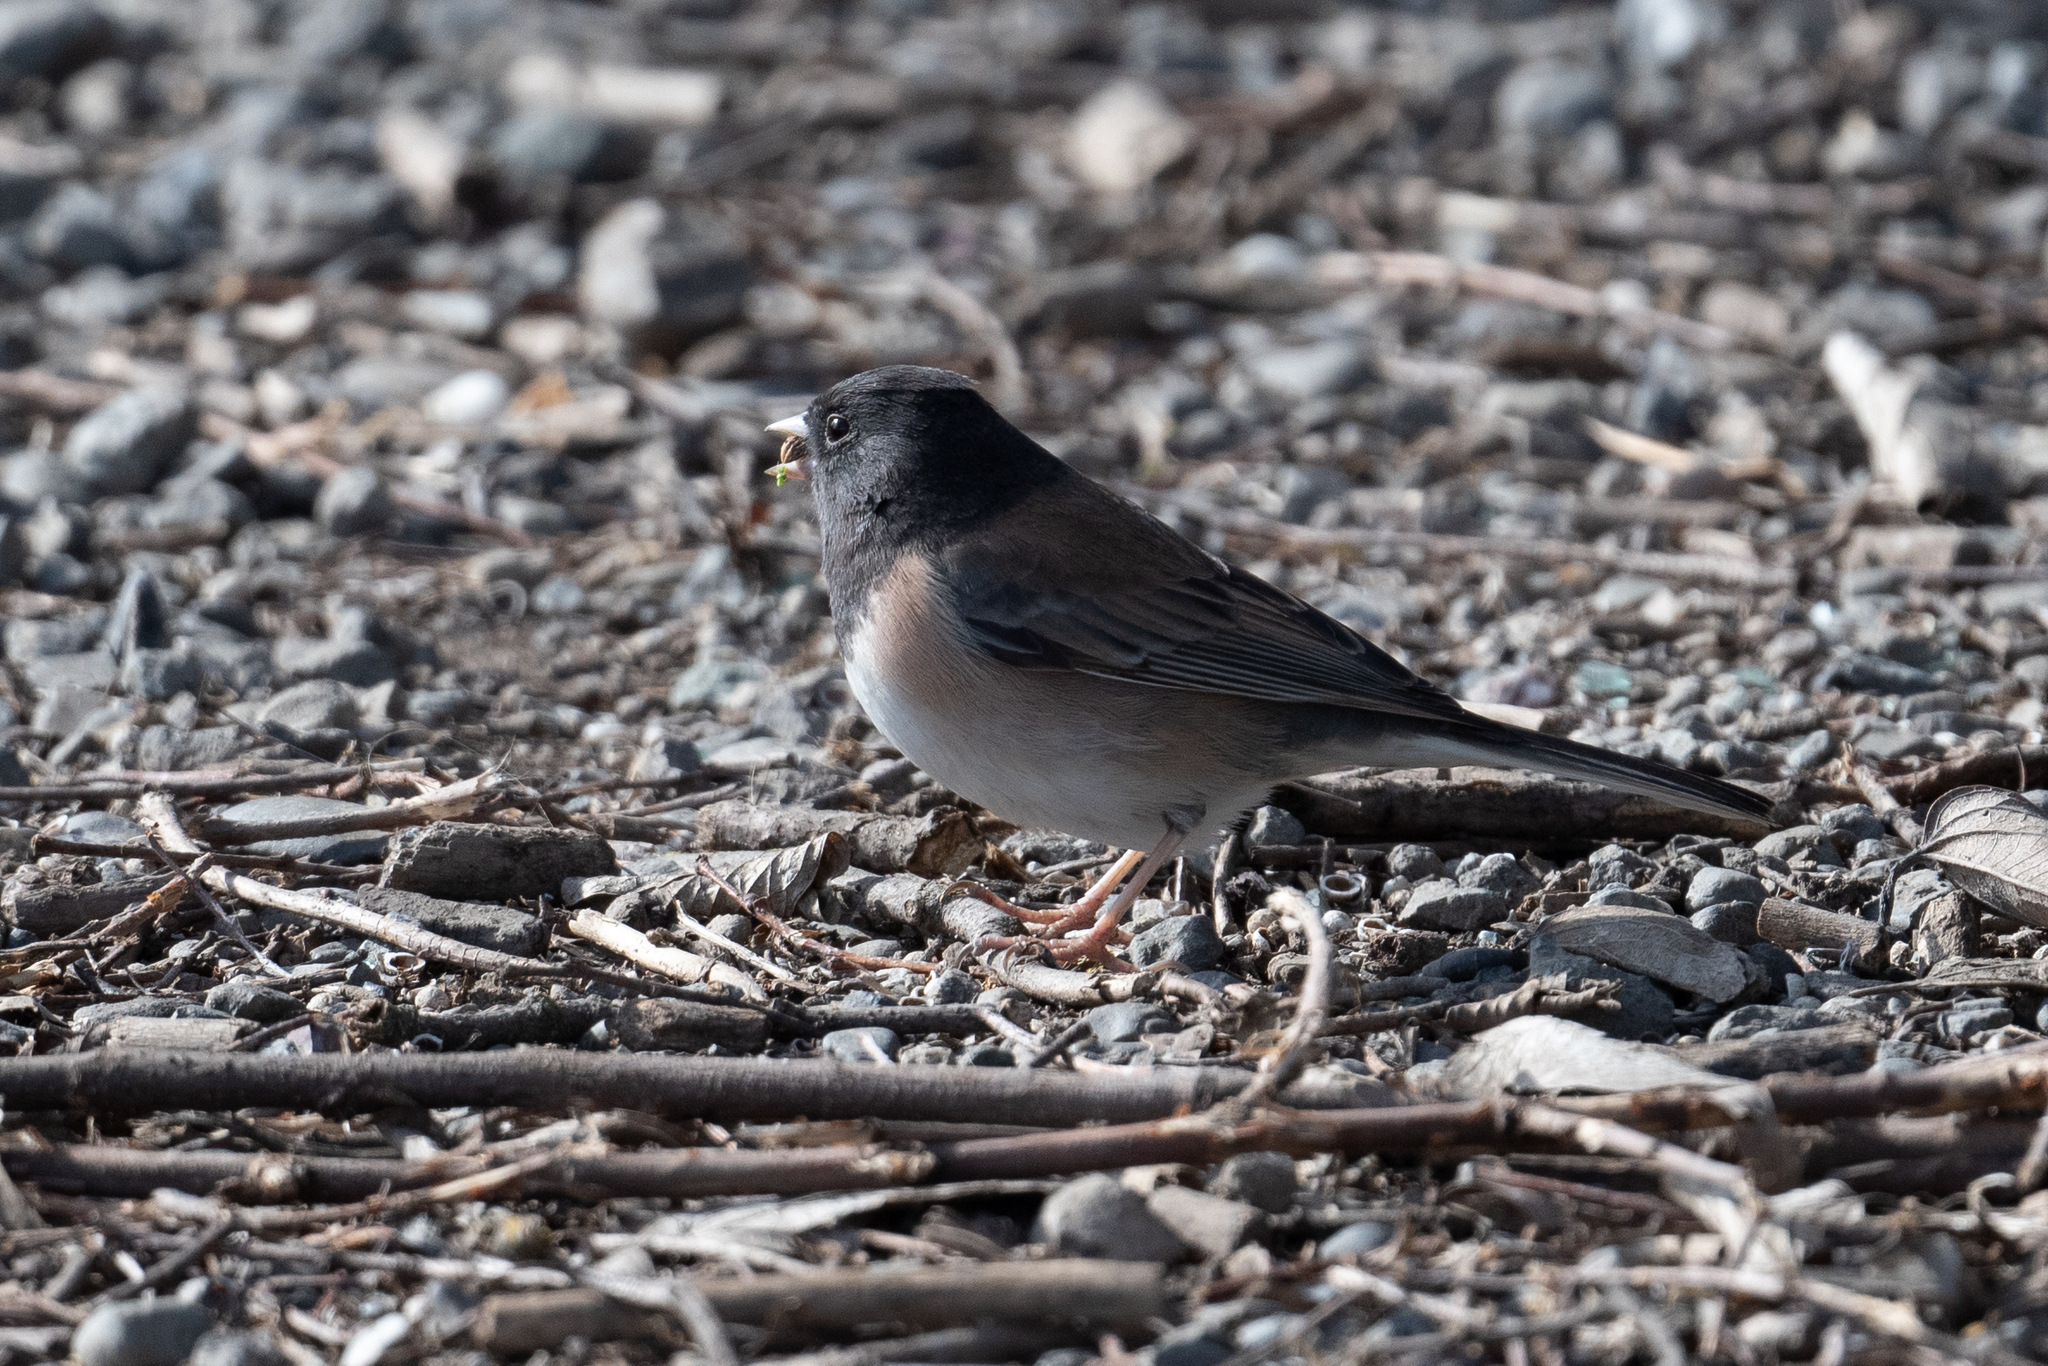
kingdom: Animalia
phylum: Chordata
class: Aves
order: Passeriformes
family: Passerellidae
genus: Junco
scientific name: Junco hyemalis
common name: Dark-eyed junco
